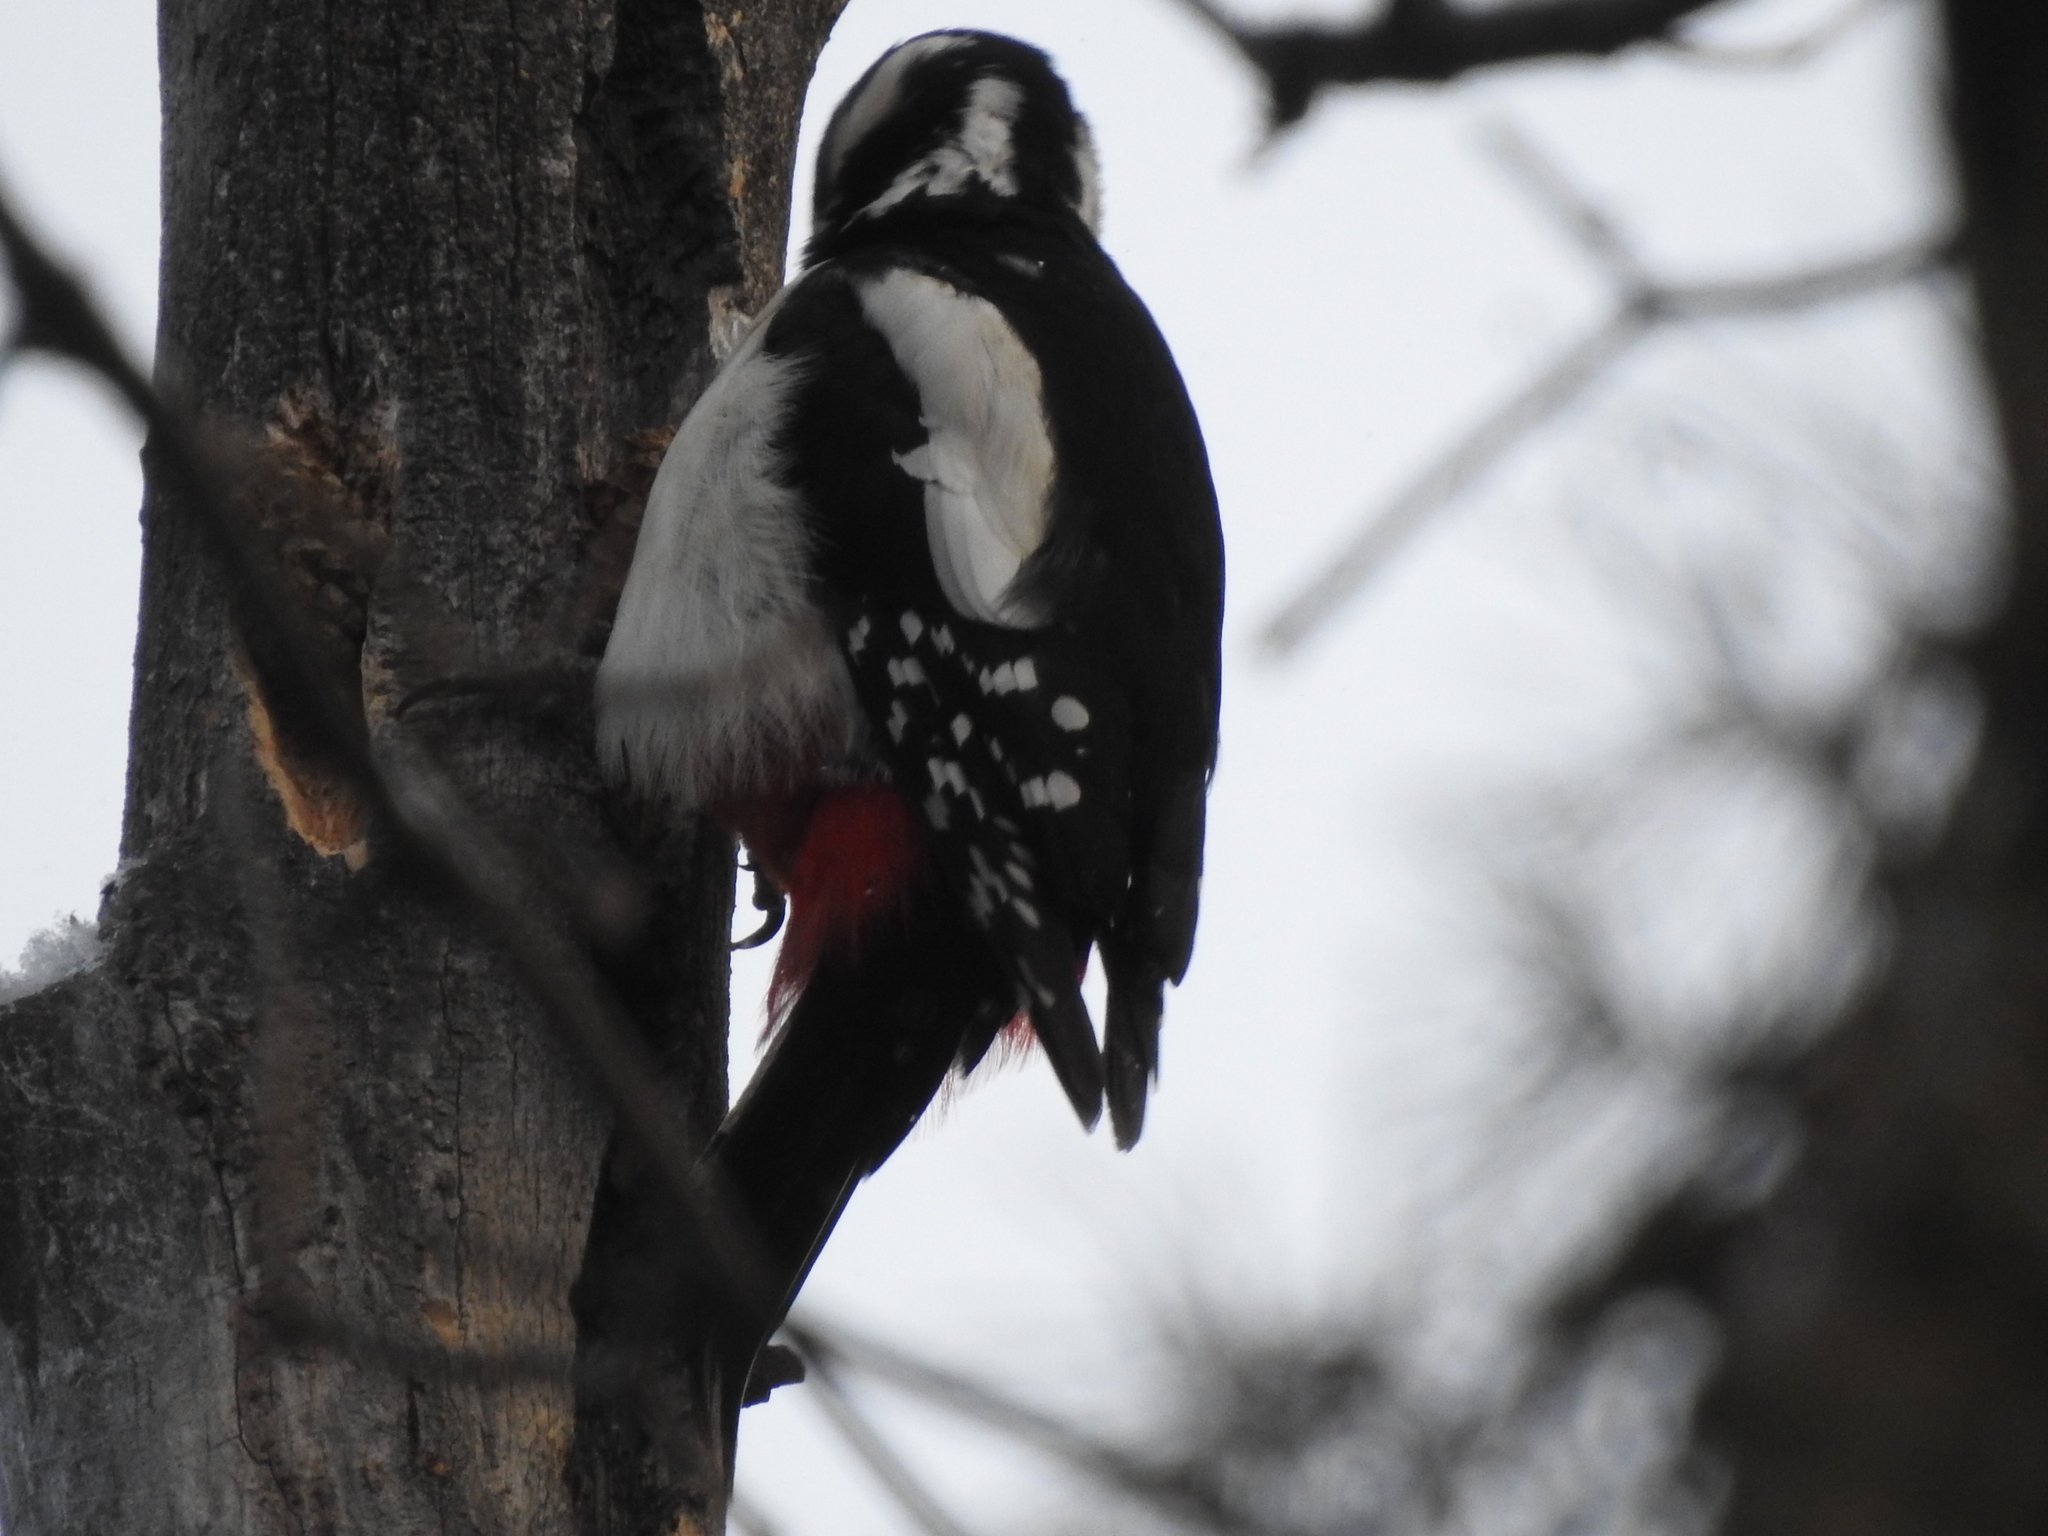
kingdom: Animalia
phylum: Chordata
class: Aves
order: Piciformes
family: Picidae
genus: Dendrocopos
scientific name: Dendrocopos major
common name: Great spotted woodpecker
